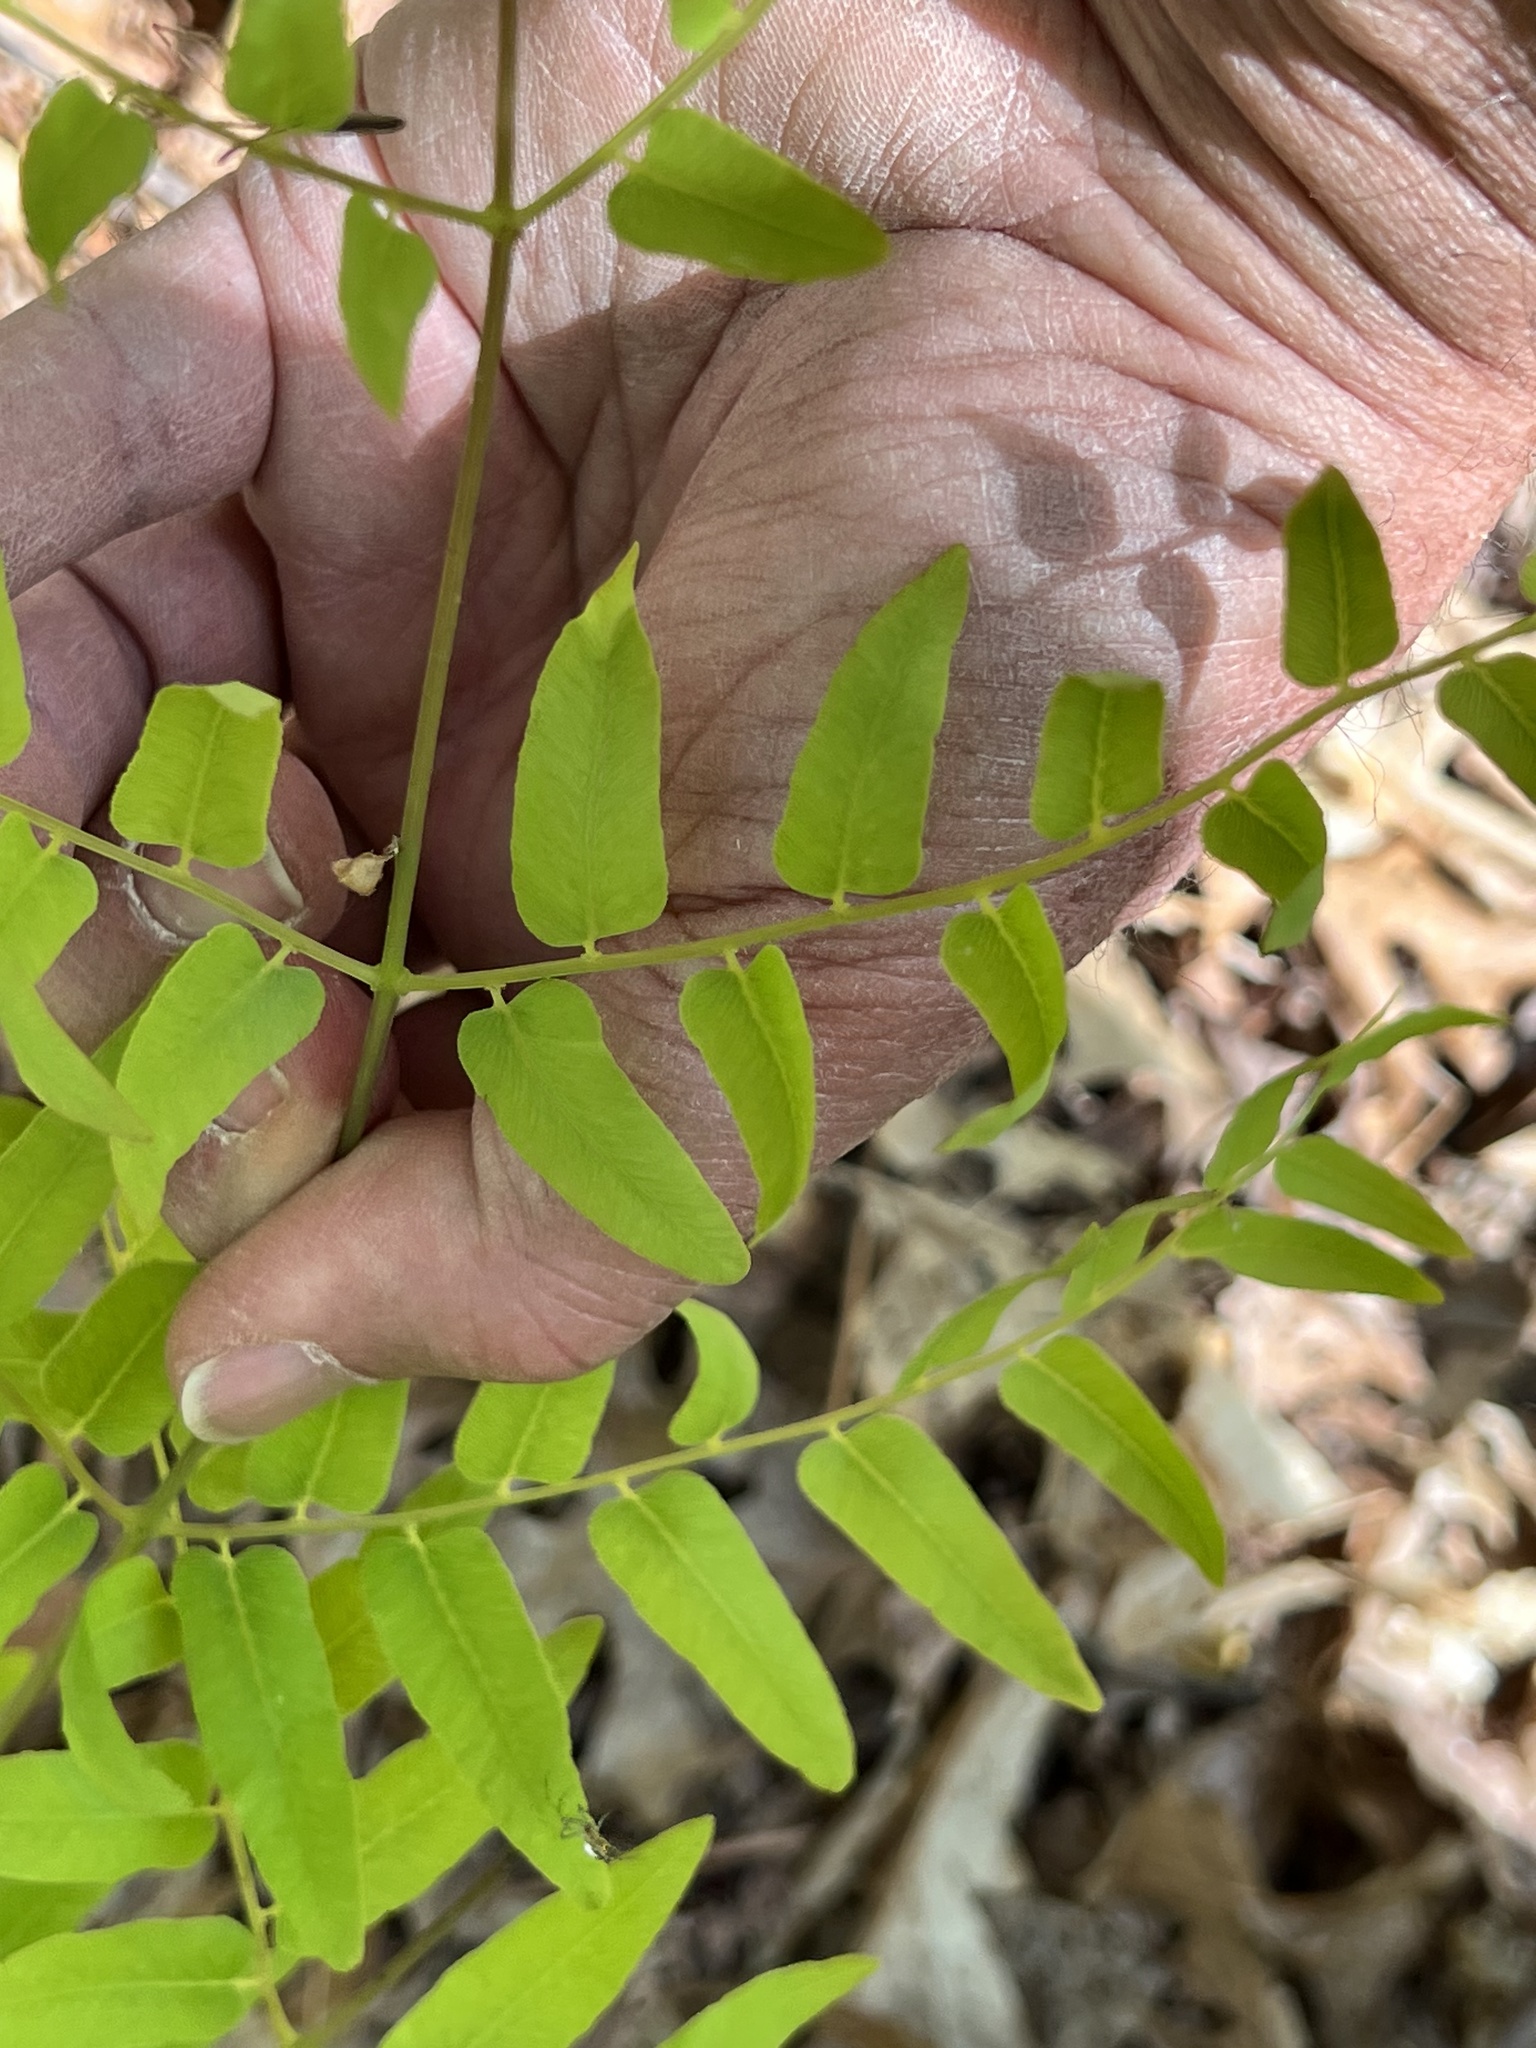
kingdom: Plantae
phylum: Tracheophyta
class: Polypodiopsida
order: Osmundales
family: Osmundaceae
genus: Osmunda
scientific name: Osmunda spectabilis
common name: American royal fern
